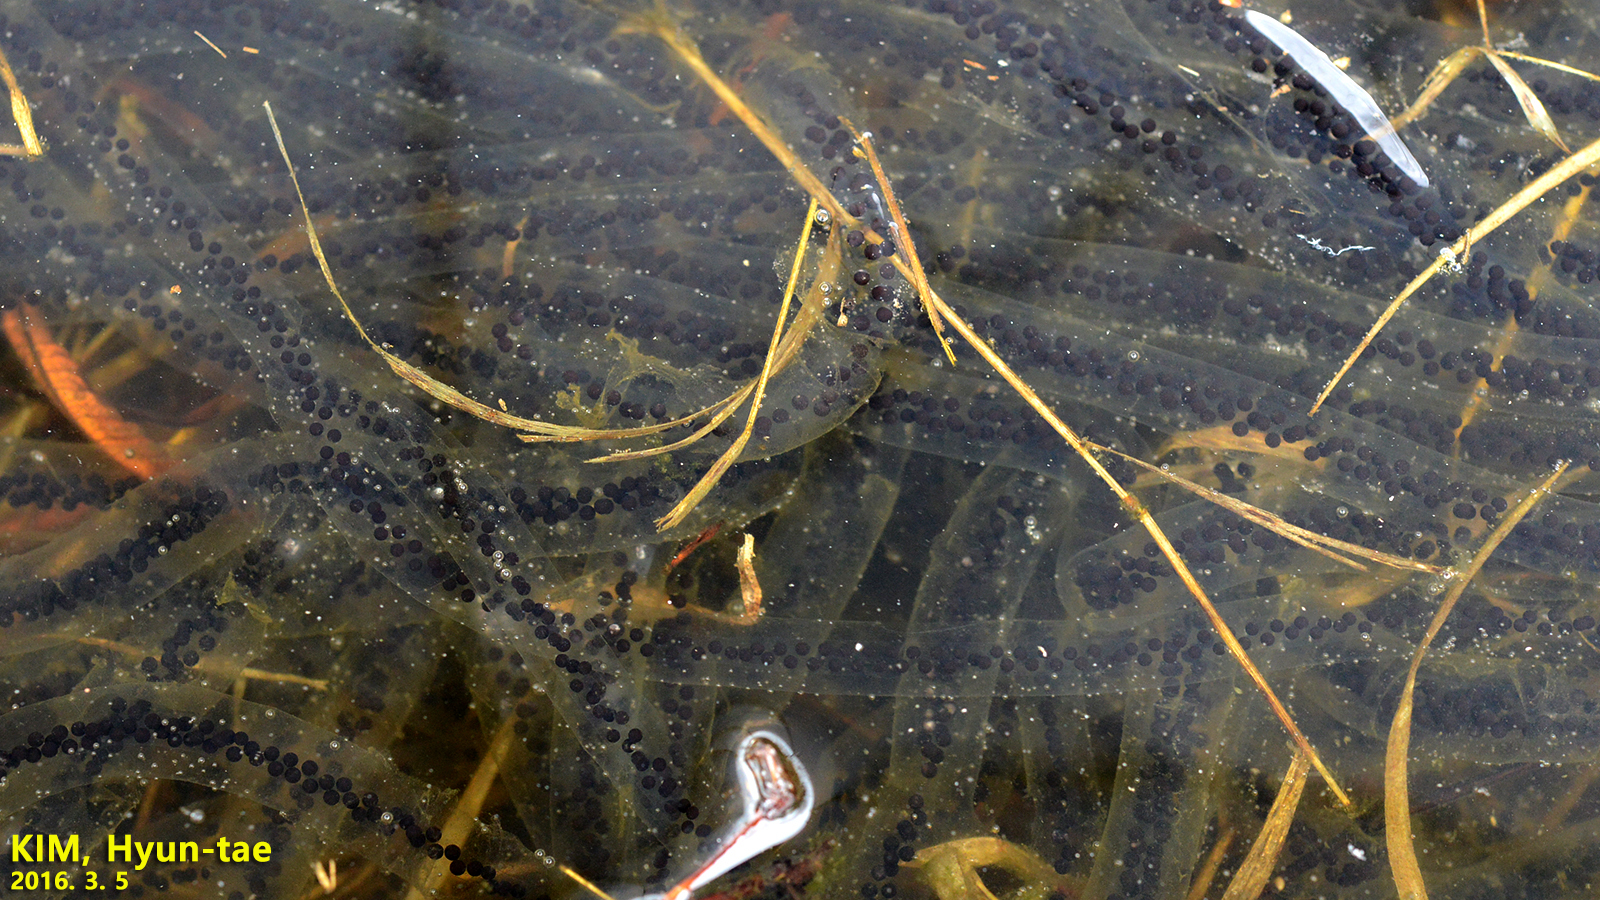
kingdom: Animalia
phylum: Chordata
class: Amphibia
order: Anura
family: Bufonidae
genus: Bufo
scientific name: Bufo gargarizans
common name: Asiatic toad
